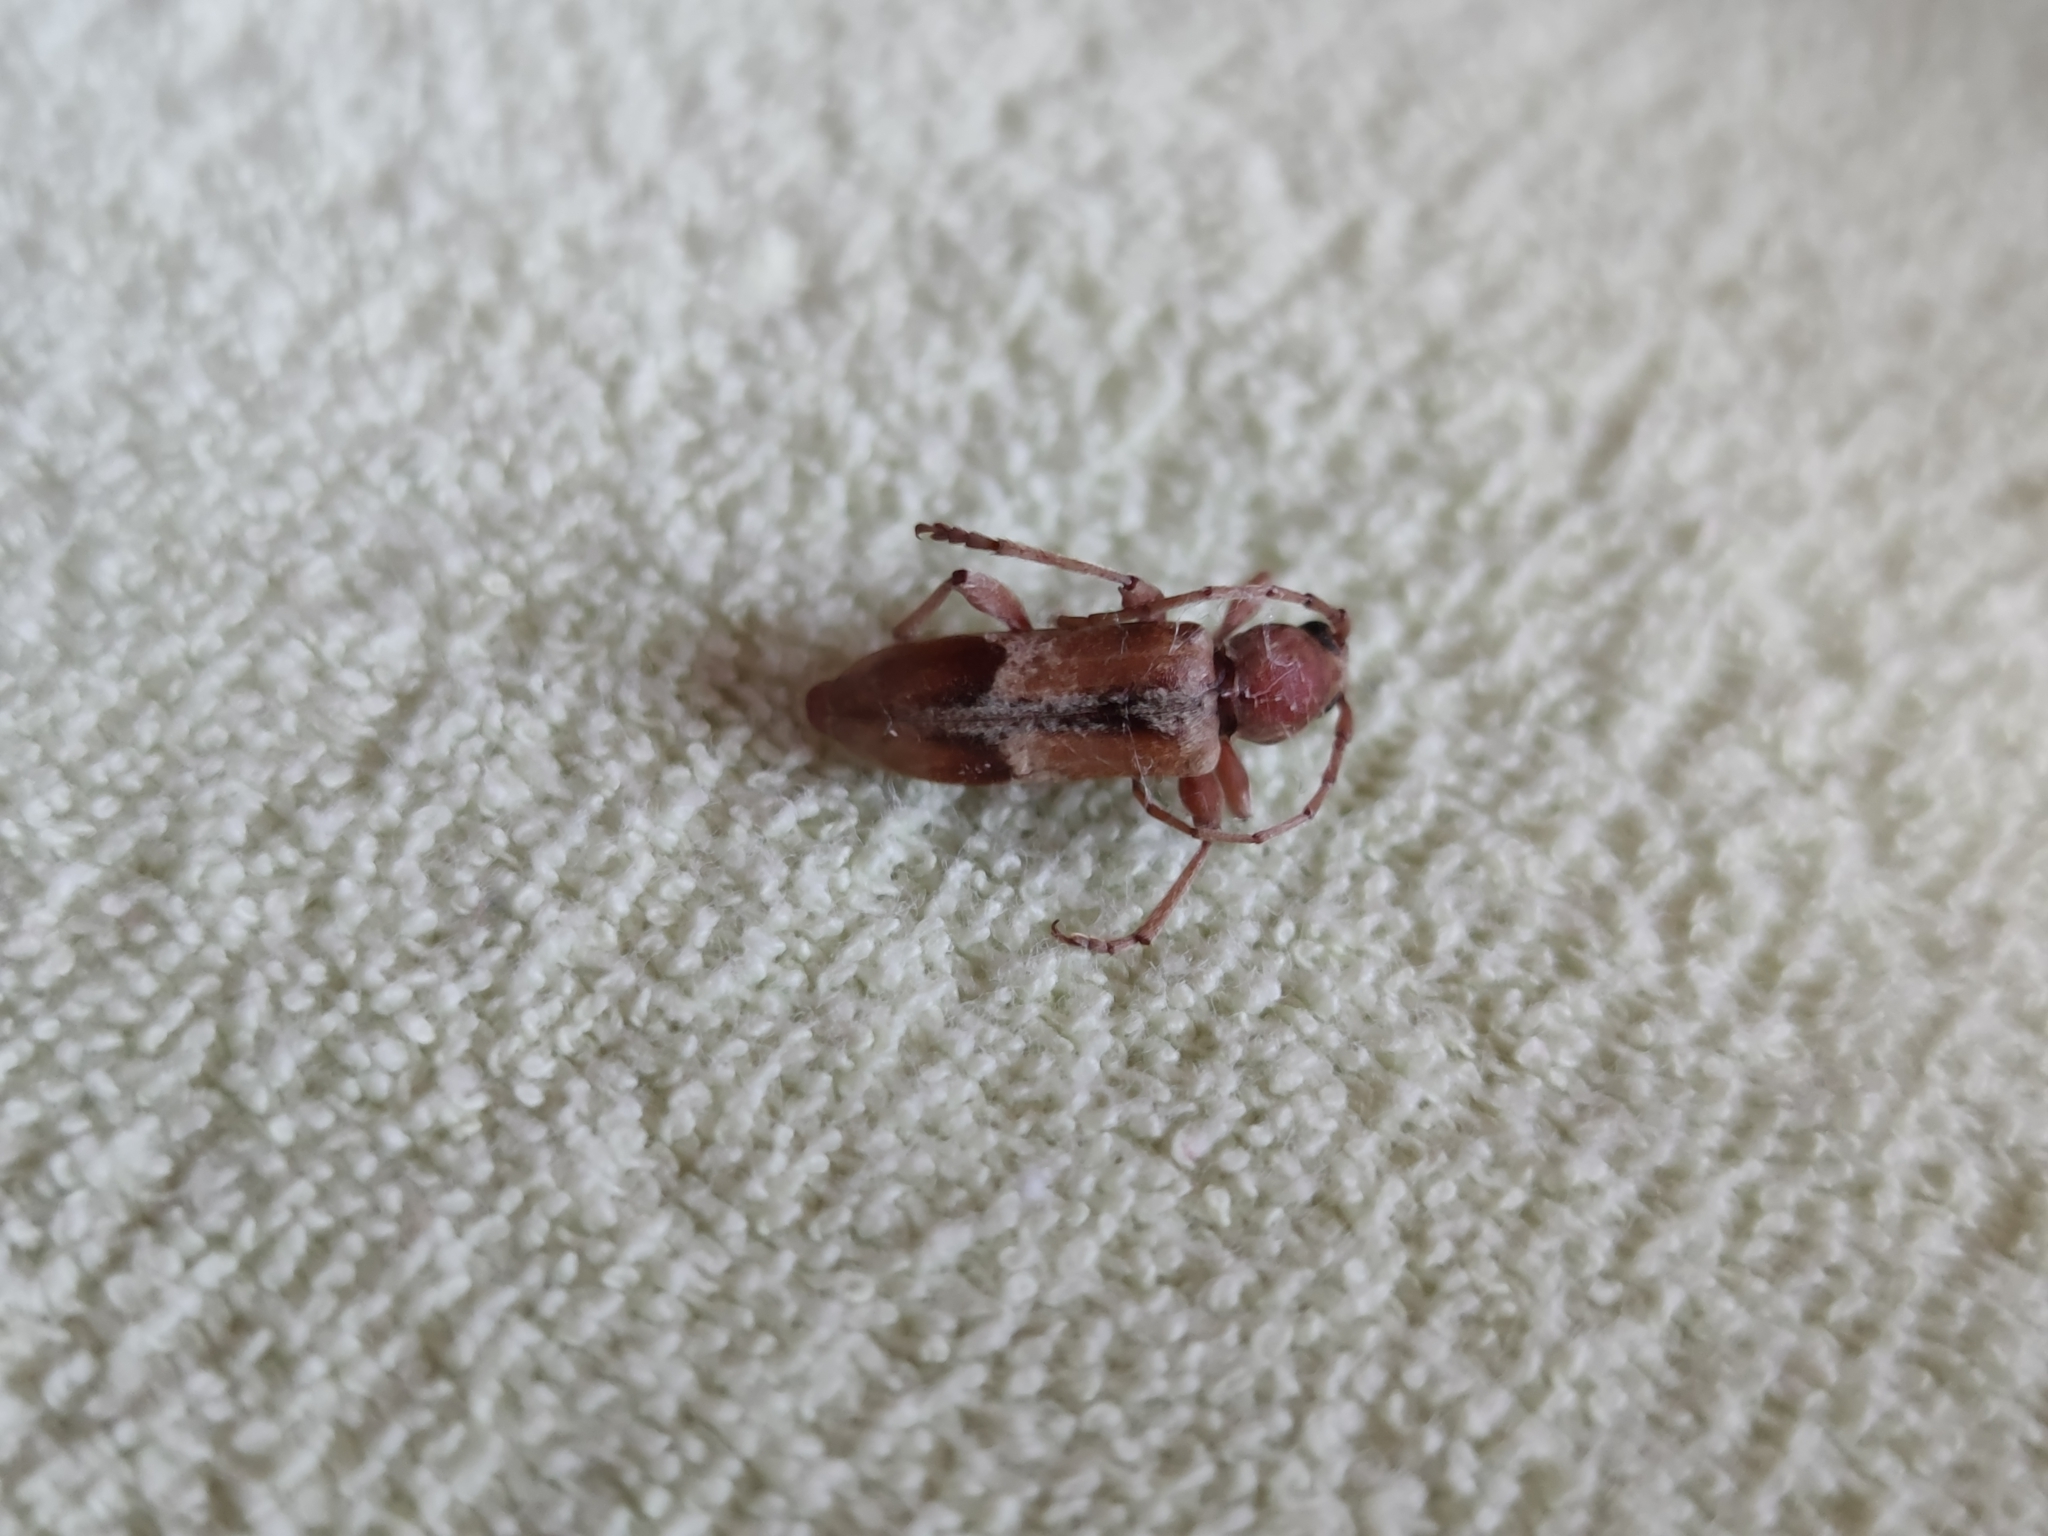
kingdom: Animalia
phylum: Arthropoda
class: Insecta
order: Coleoptera
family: Cerambycidae
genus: Trichoferus
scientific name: Trichoferus pallidus
